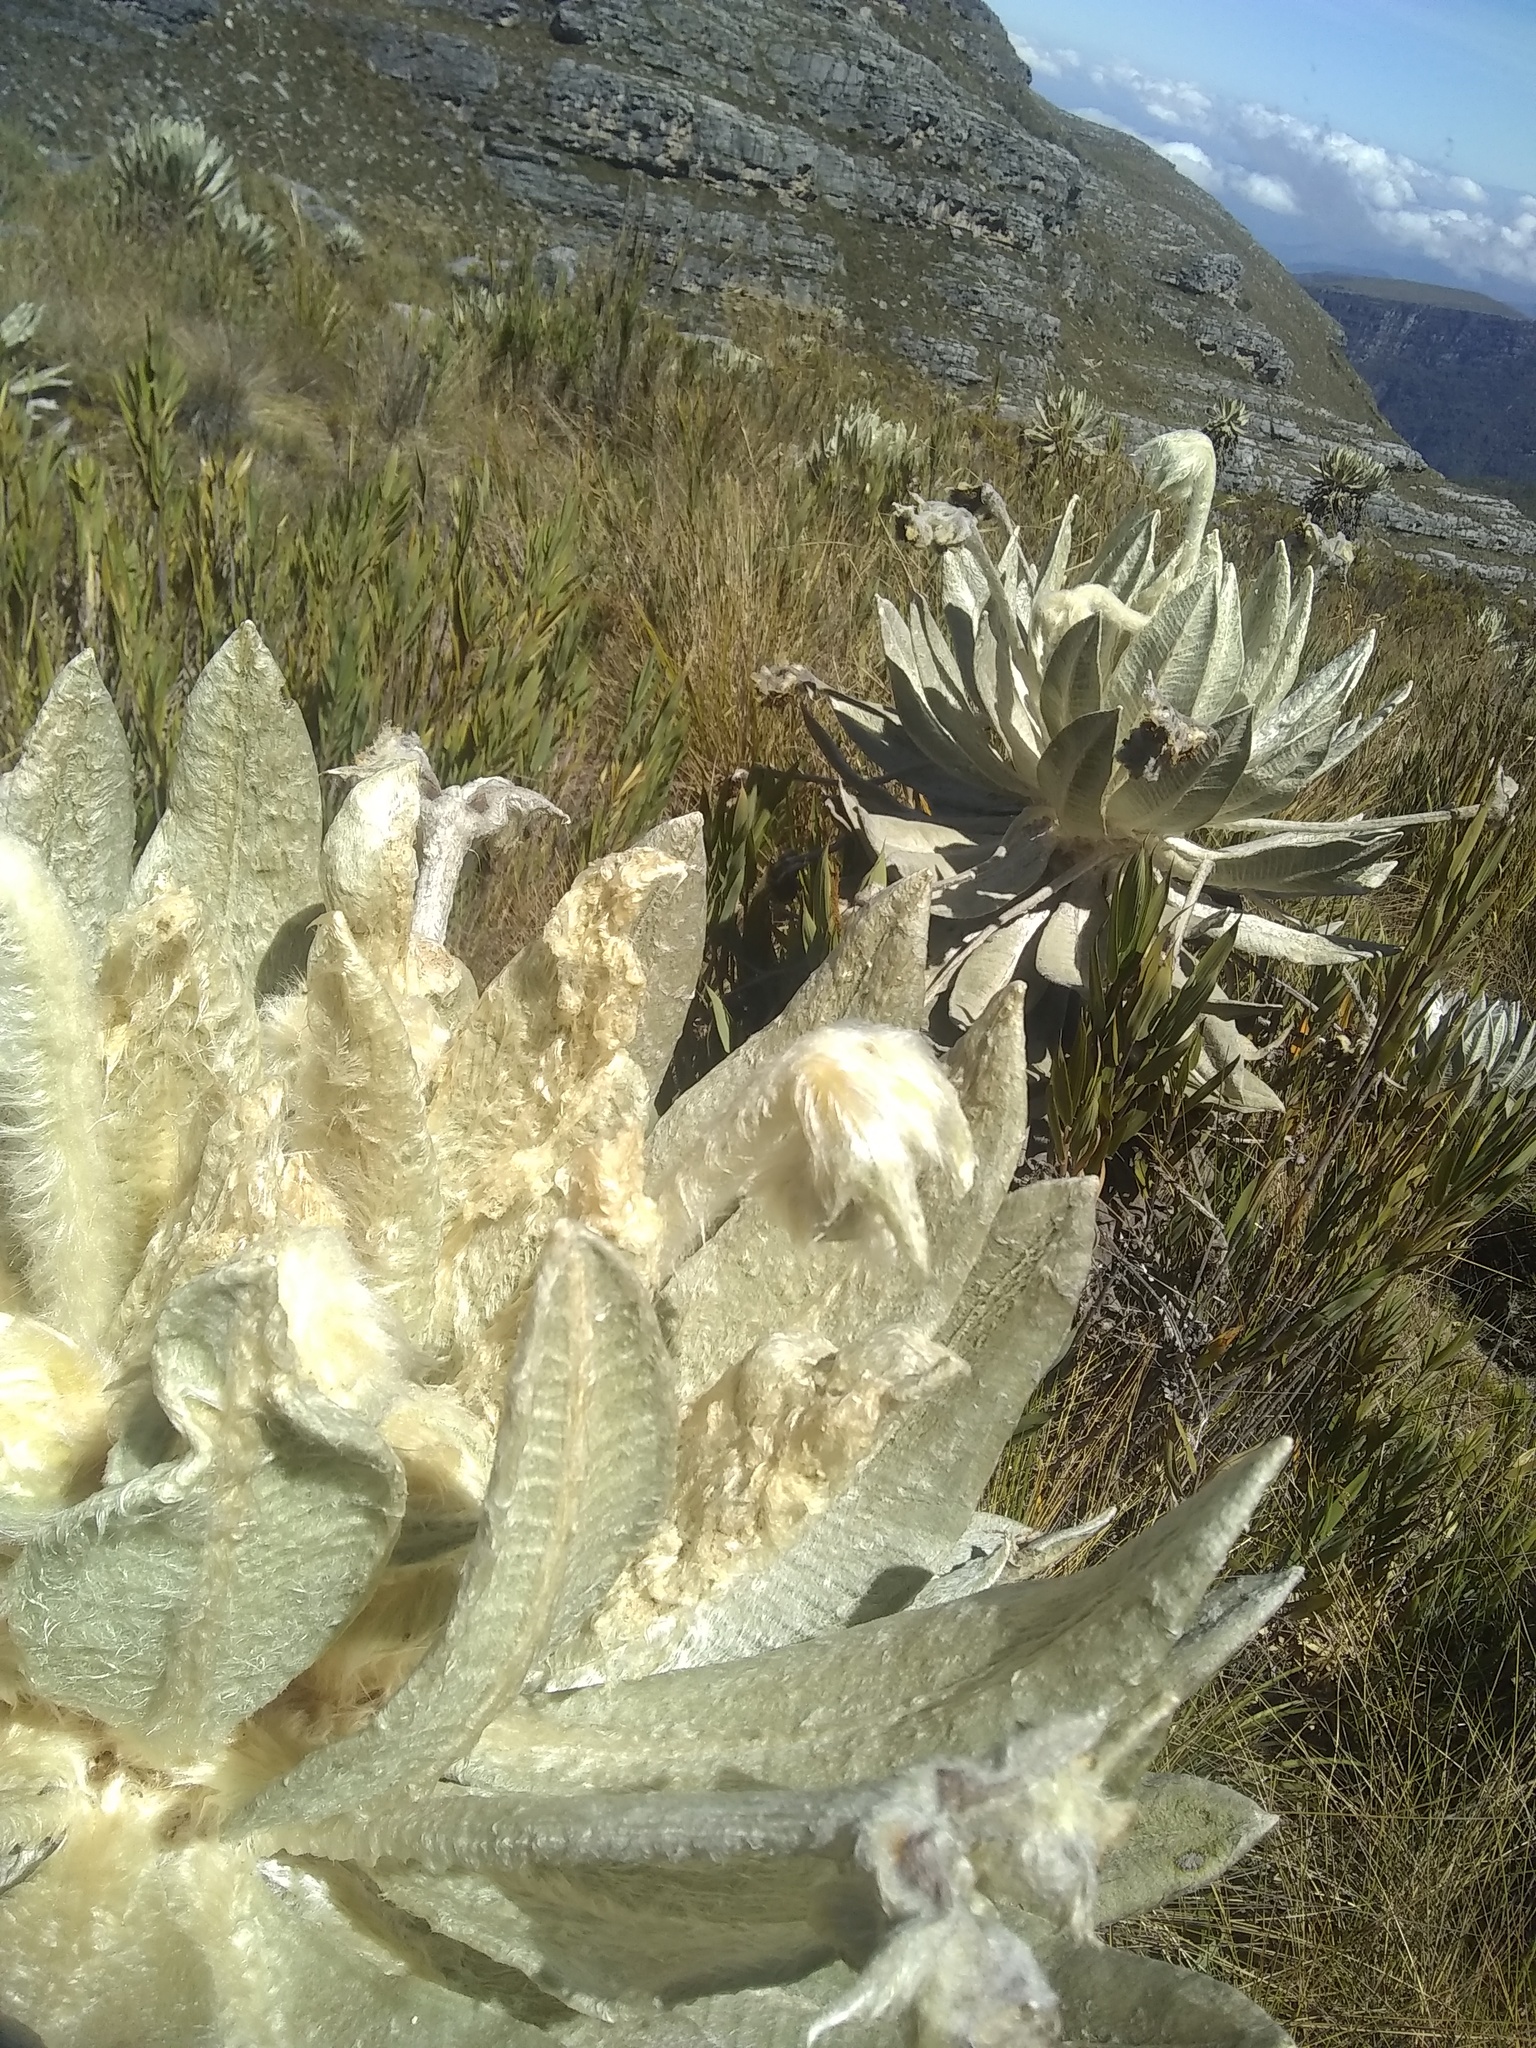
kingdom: Plantae
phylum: Tracheophyta
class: Magnoliopsida
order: Asterales
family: Asteraceae
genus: Espeletia
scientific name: Espeletia incana
